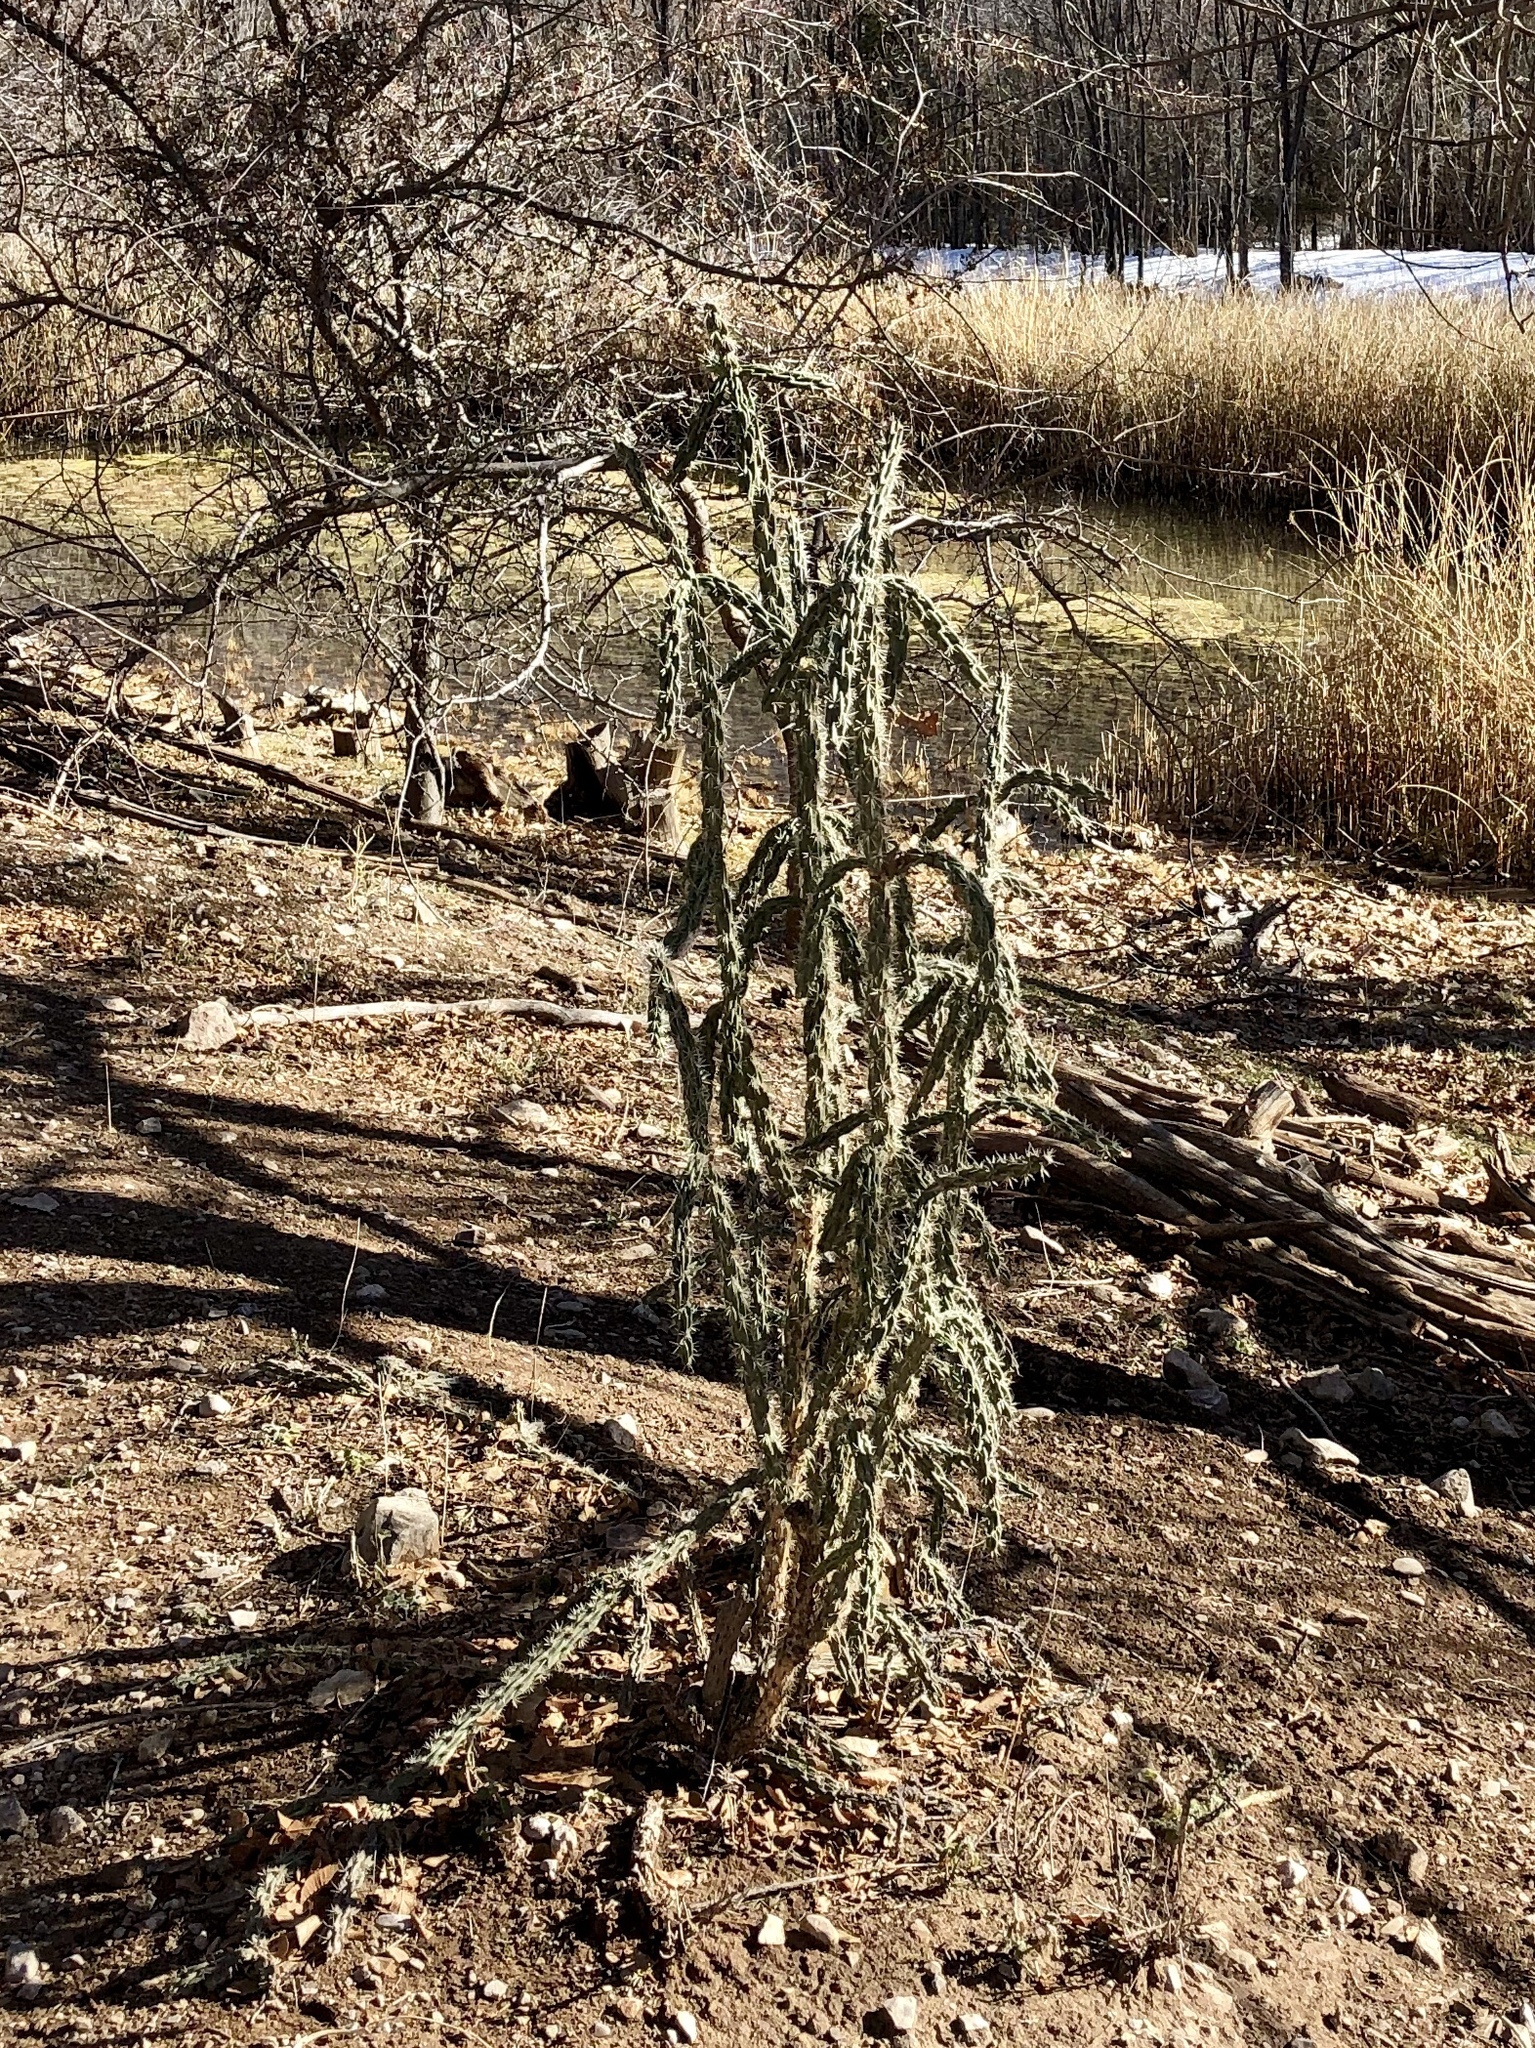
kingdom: Plantae
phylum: Tracheophyta
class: Magnoliopsida
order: Caryophyllales
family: Cactaceae
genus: Cylindropuntia
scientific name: Cylindropuntia imbricata
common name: Candelabrum cactus
